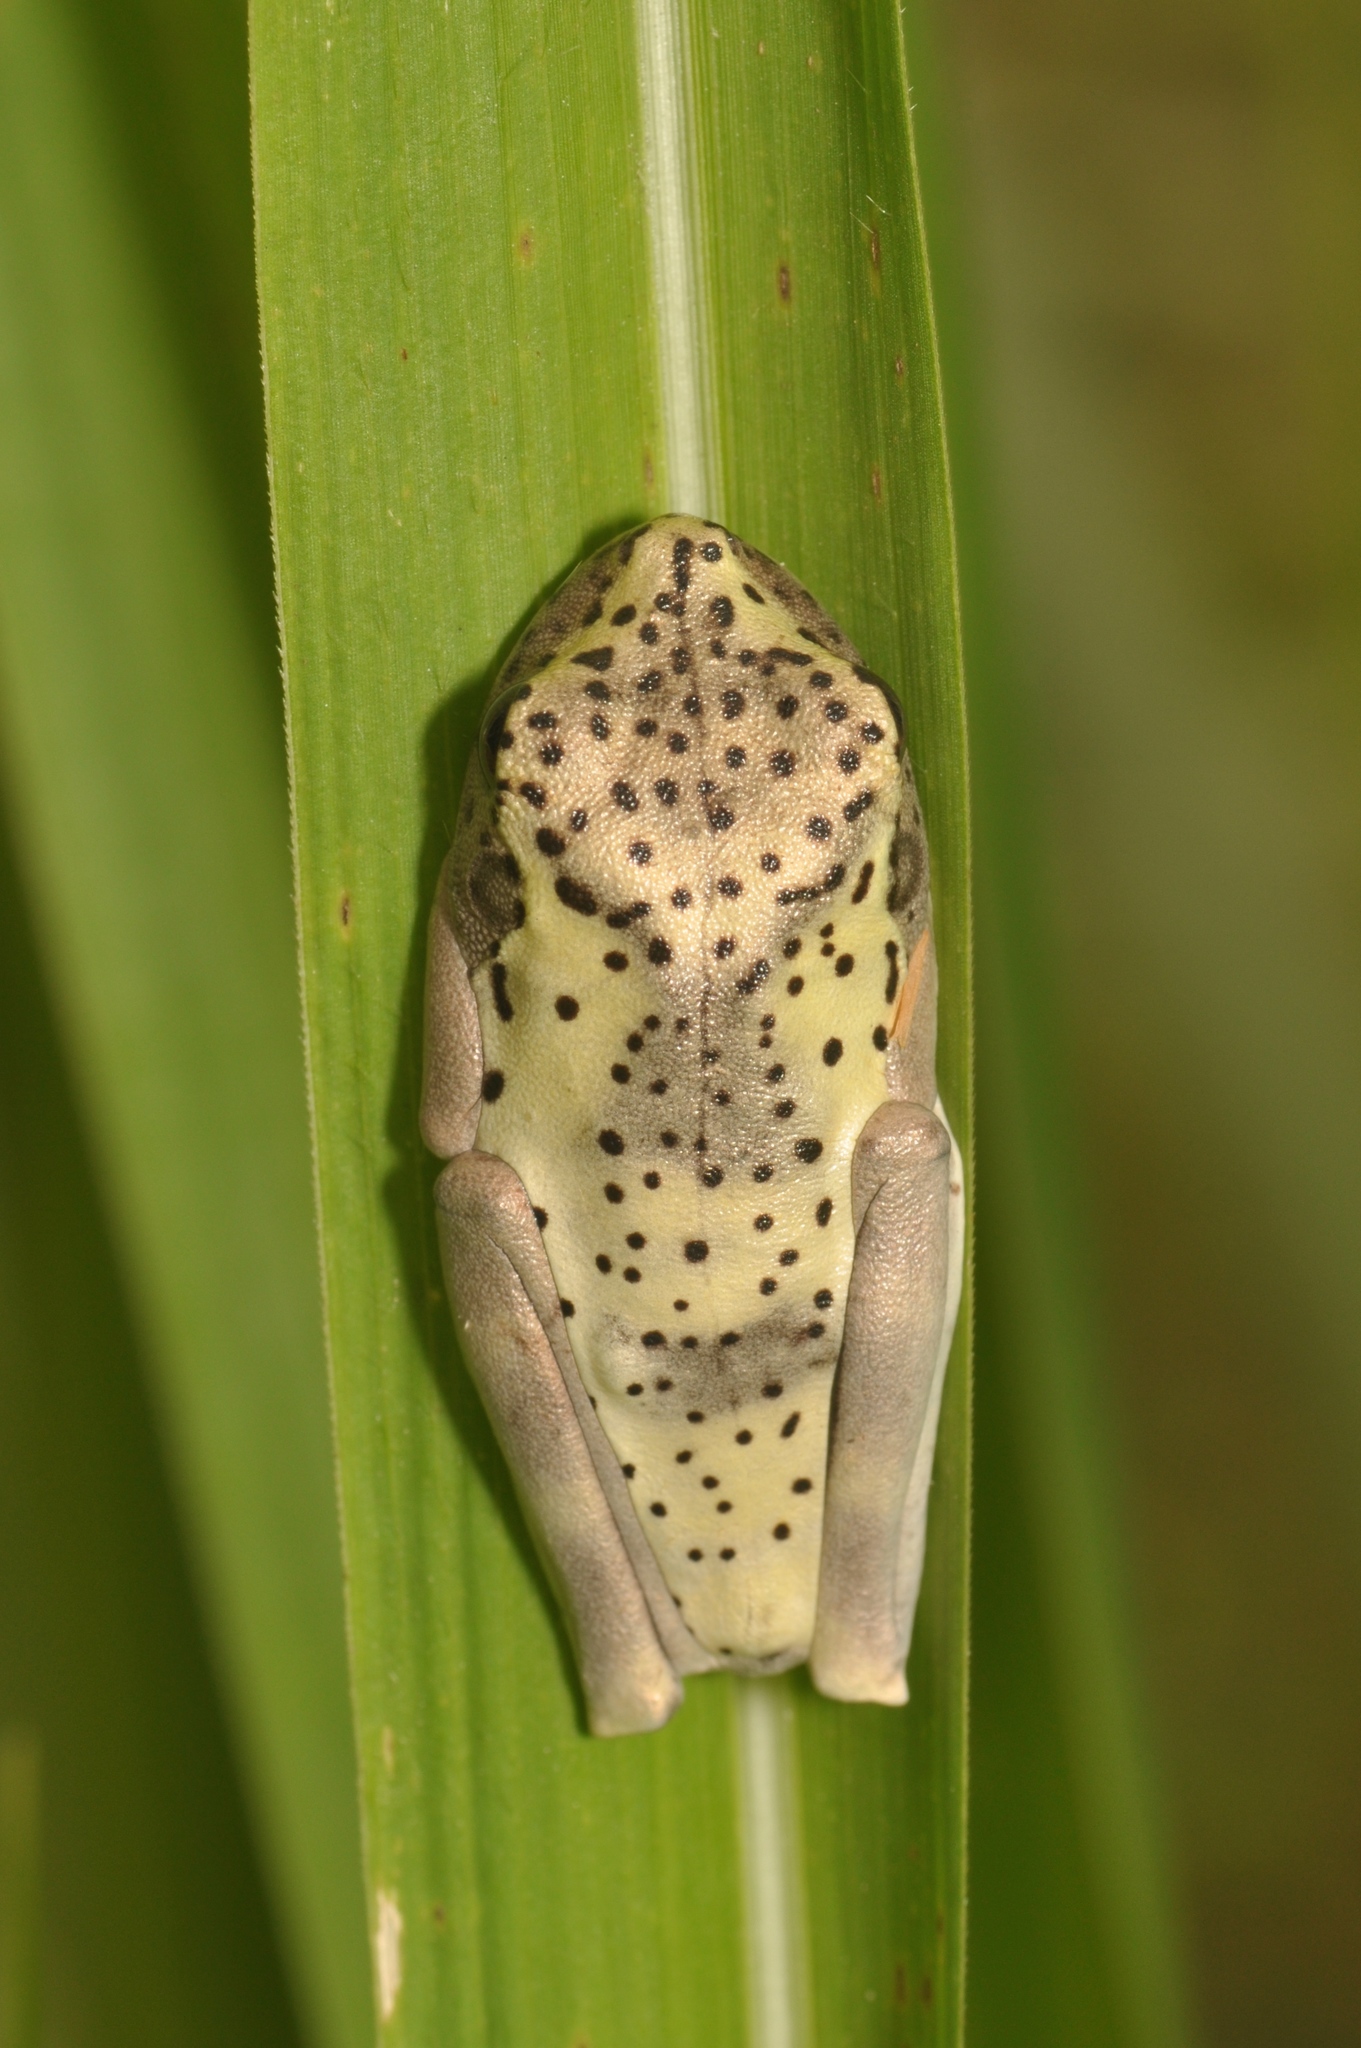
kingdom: Animalia
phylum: Chordata
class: Amphibia
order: Anura
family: Hylidae
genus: Boana
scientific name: Boana appendiculata
